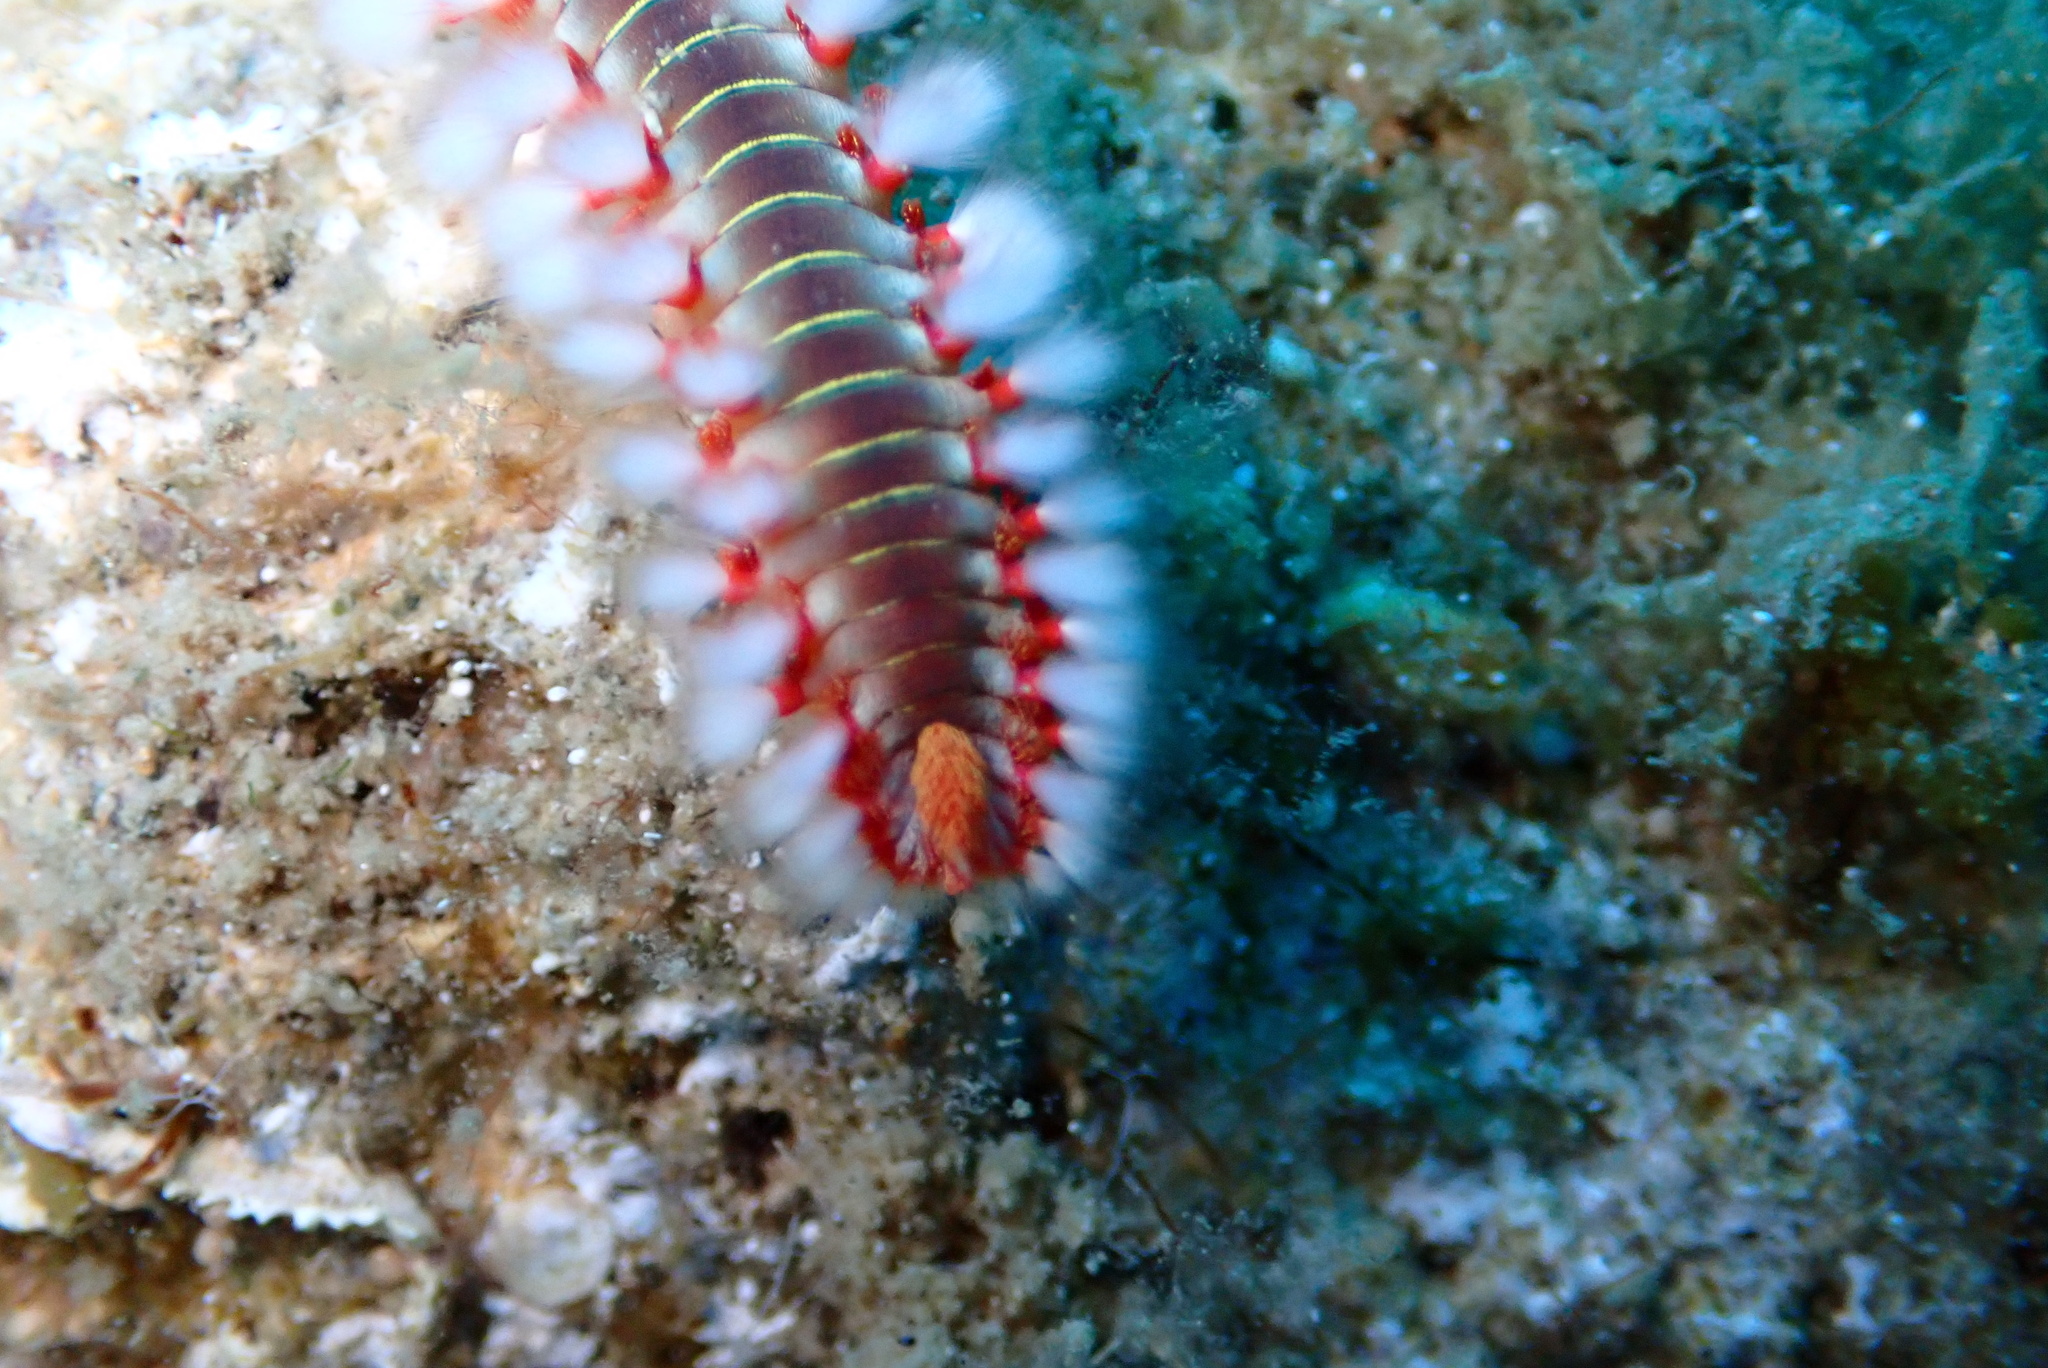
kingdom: Animalia
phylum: Annelida
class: Polychaeta
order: Amphinomida
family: Amphinomidae
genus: Hermodice
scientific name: Hermodice carunculata
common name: Bearded fireworm
